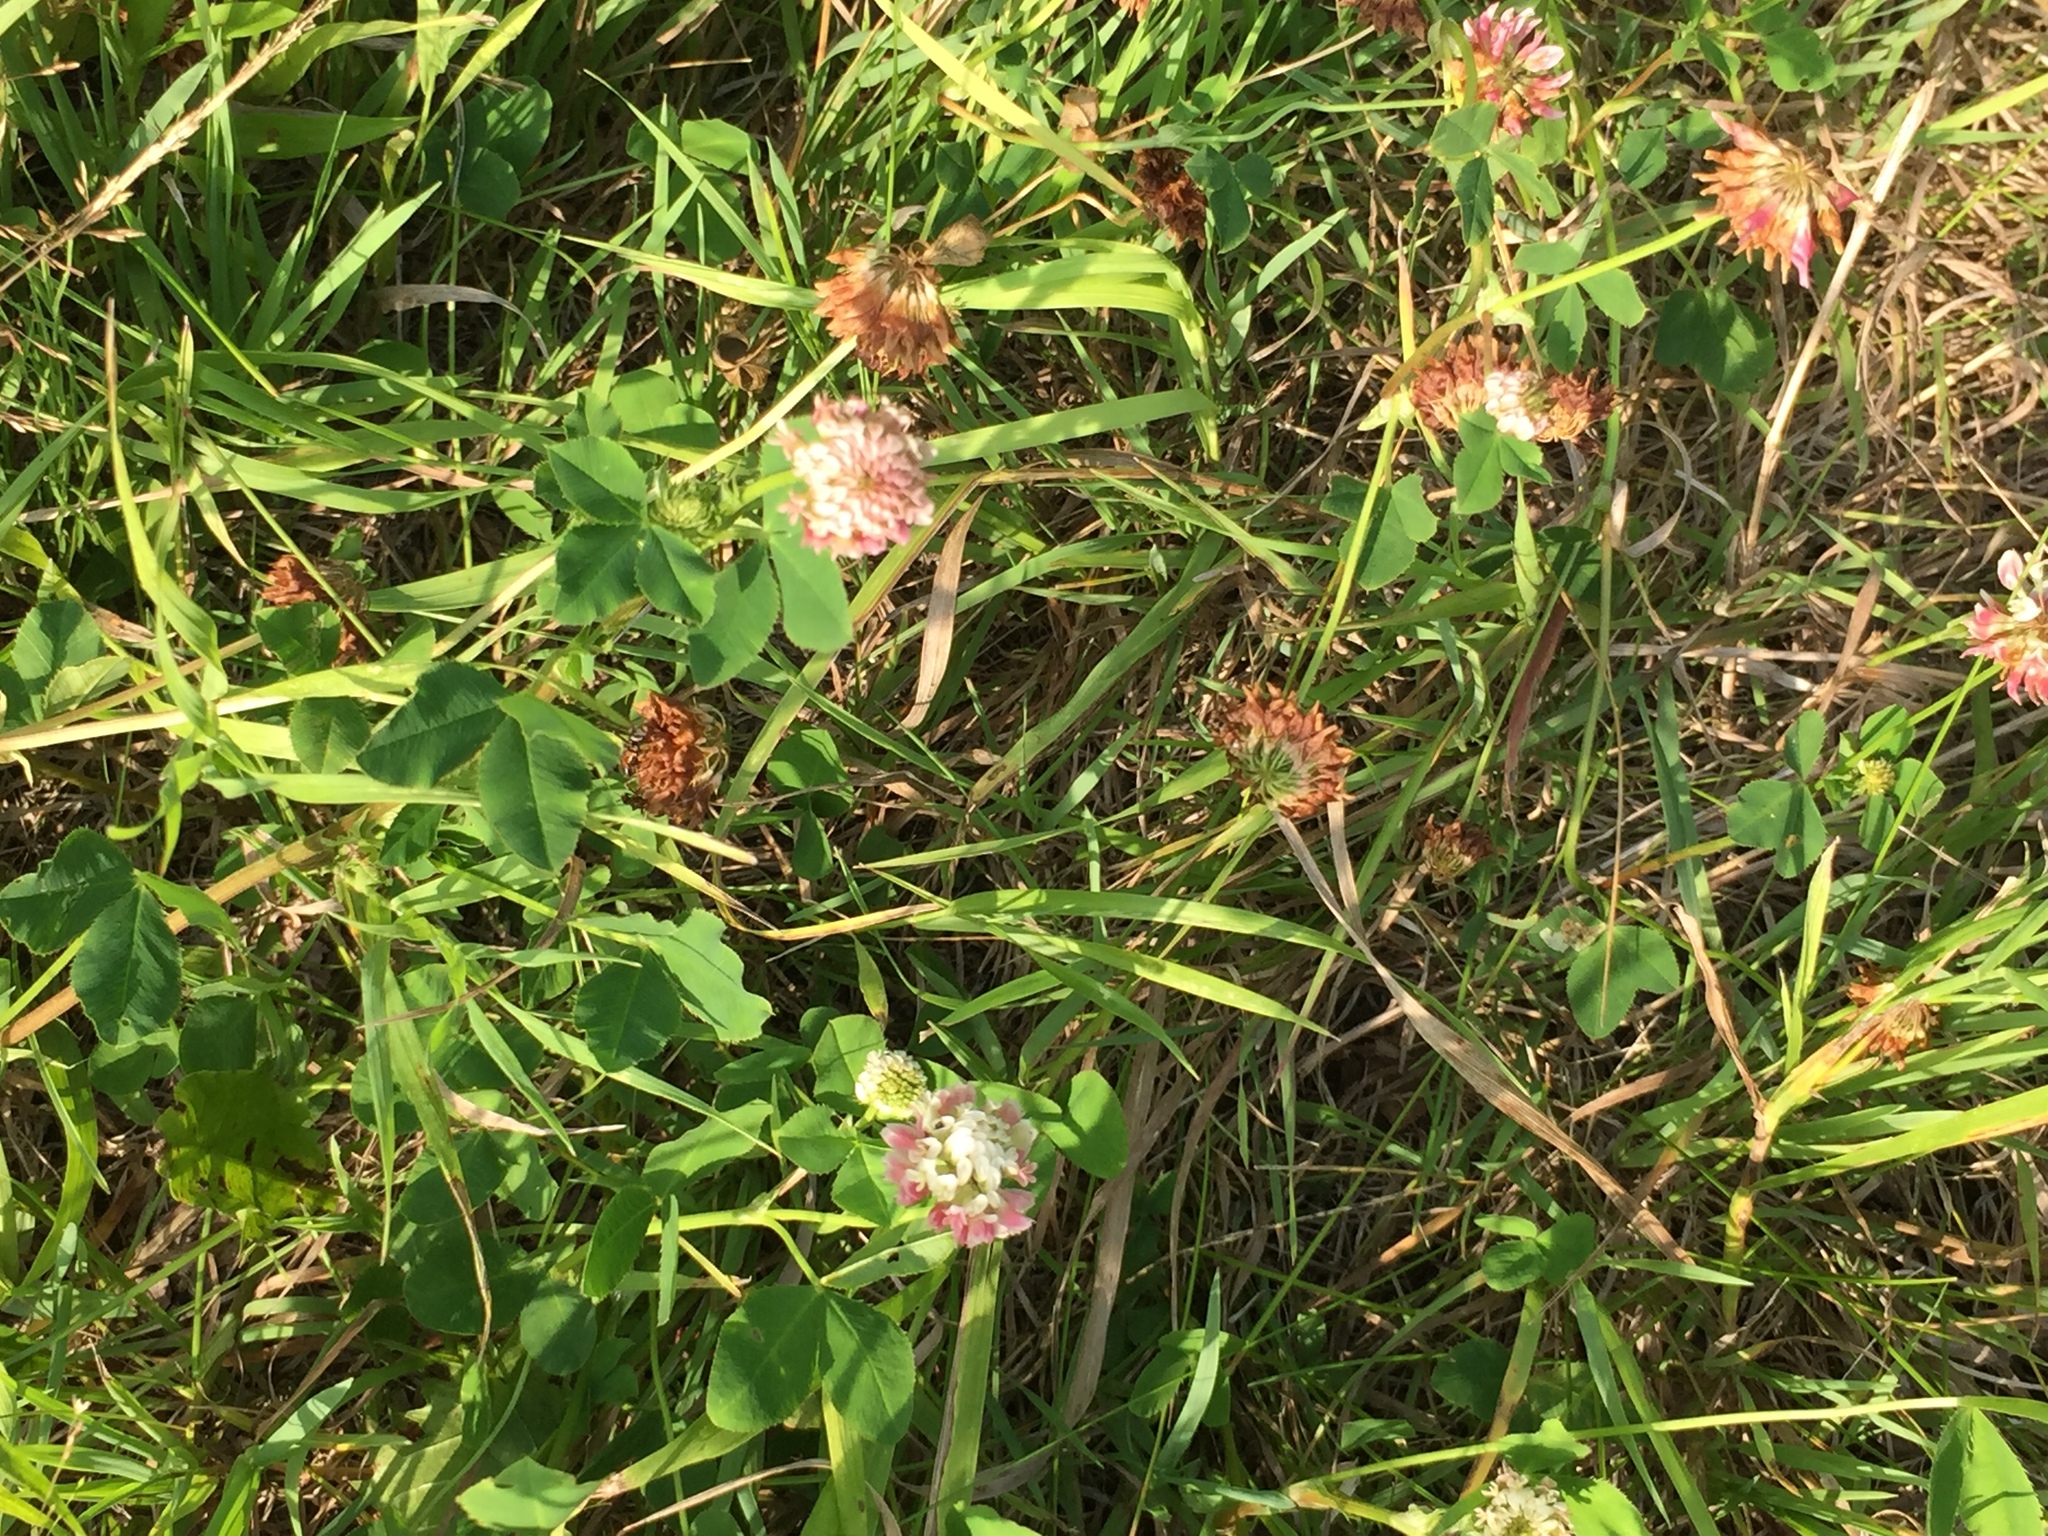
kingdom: Plantae
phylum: Tracheophyta
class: Magnoliopsida
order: Fabales
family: Fabaceae
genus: Trifolium
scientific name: Trifolium hybridum
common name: Alsike clover
